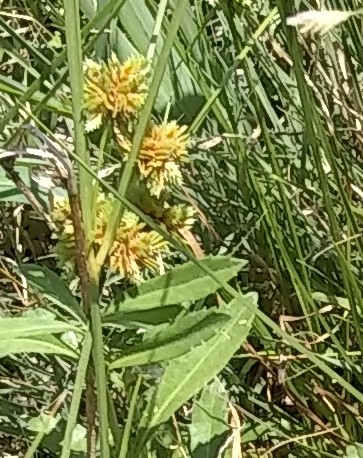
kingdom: Plantae
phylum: Tracheophyta
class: Liliopsida
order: Poales
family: Cyperaceae
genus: Cyperus
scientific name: Cyperus acuminatus
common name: Short-pointed cyperus
